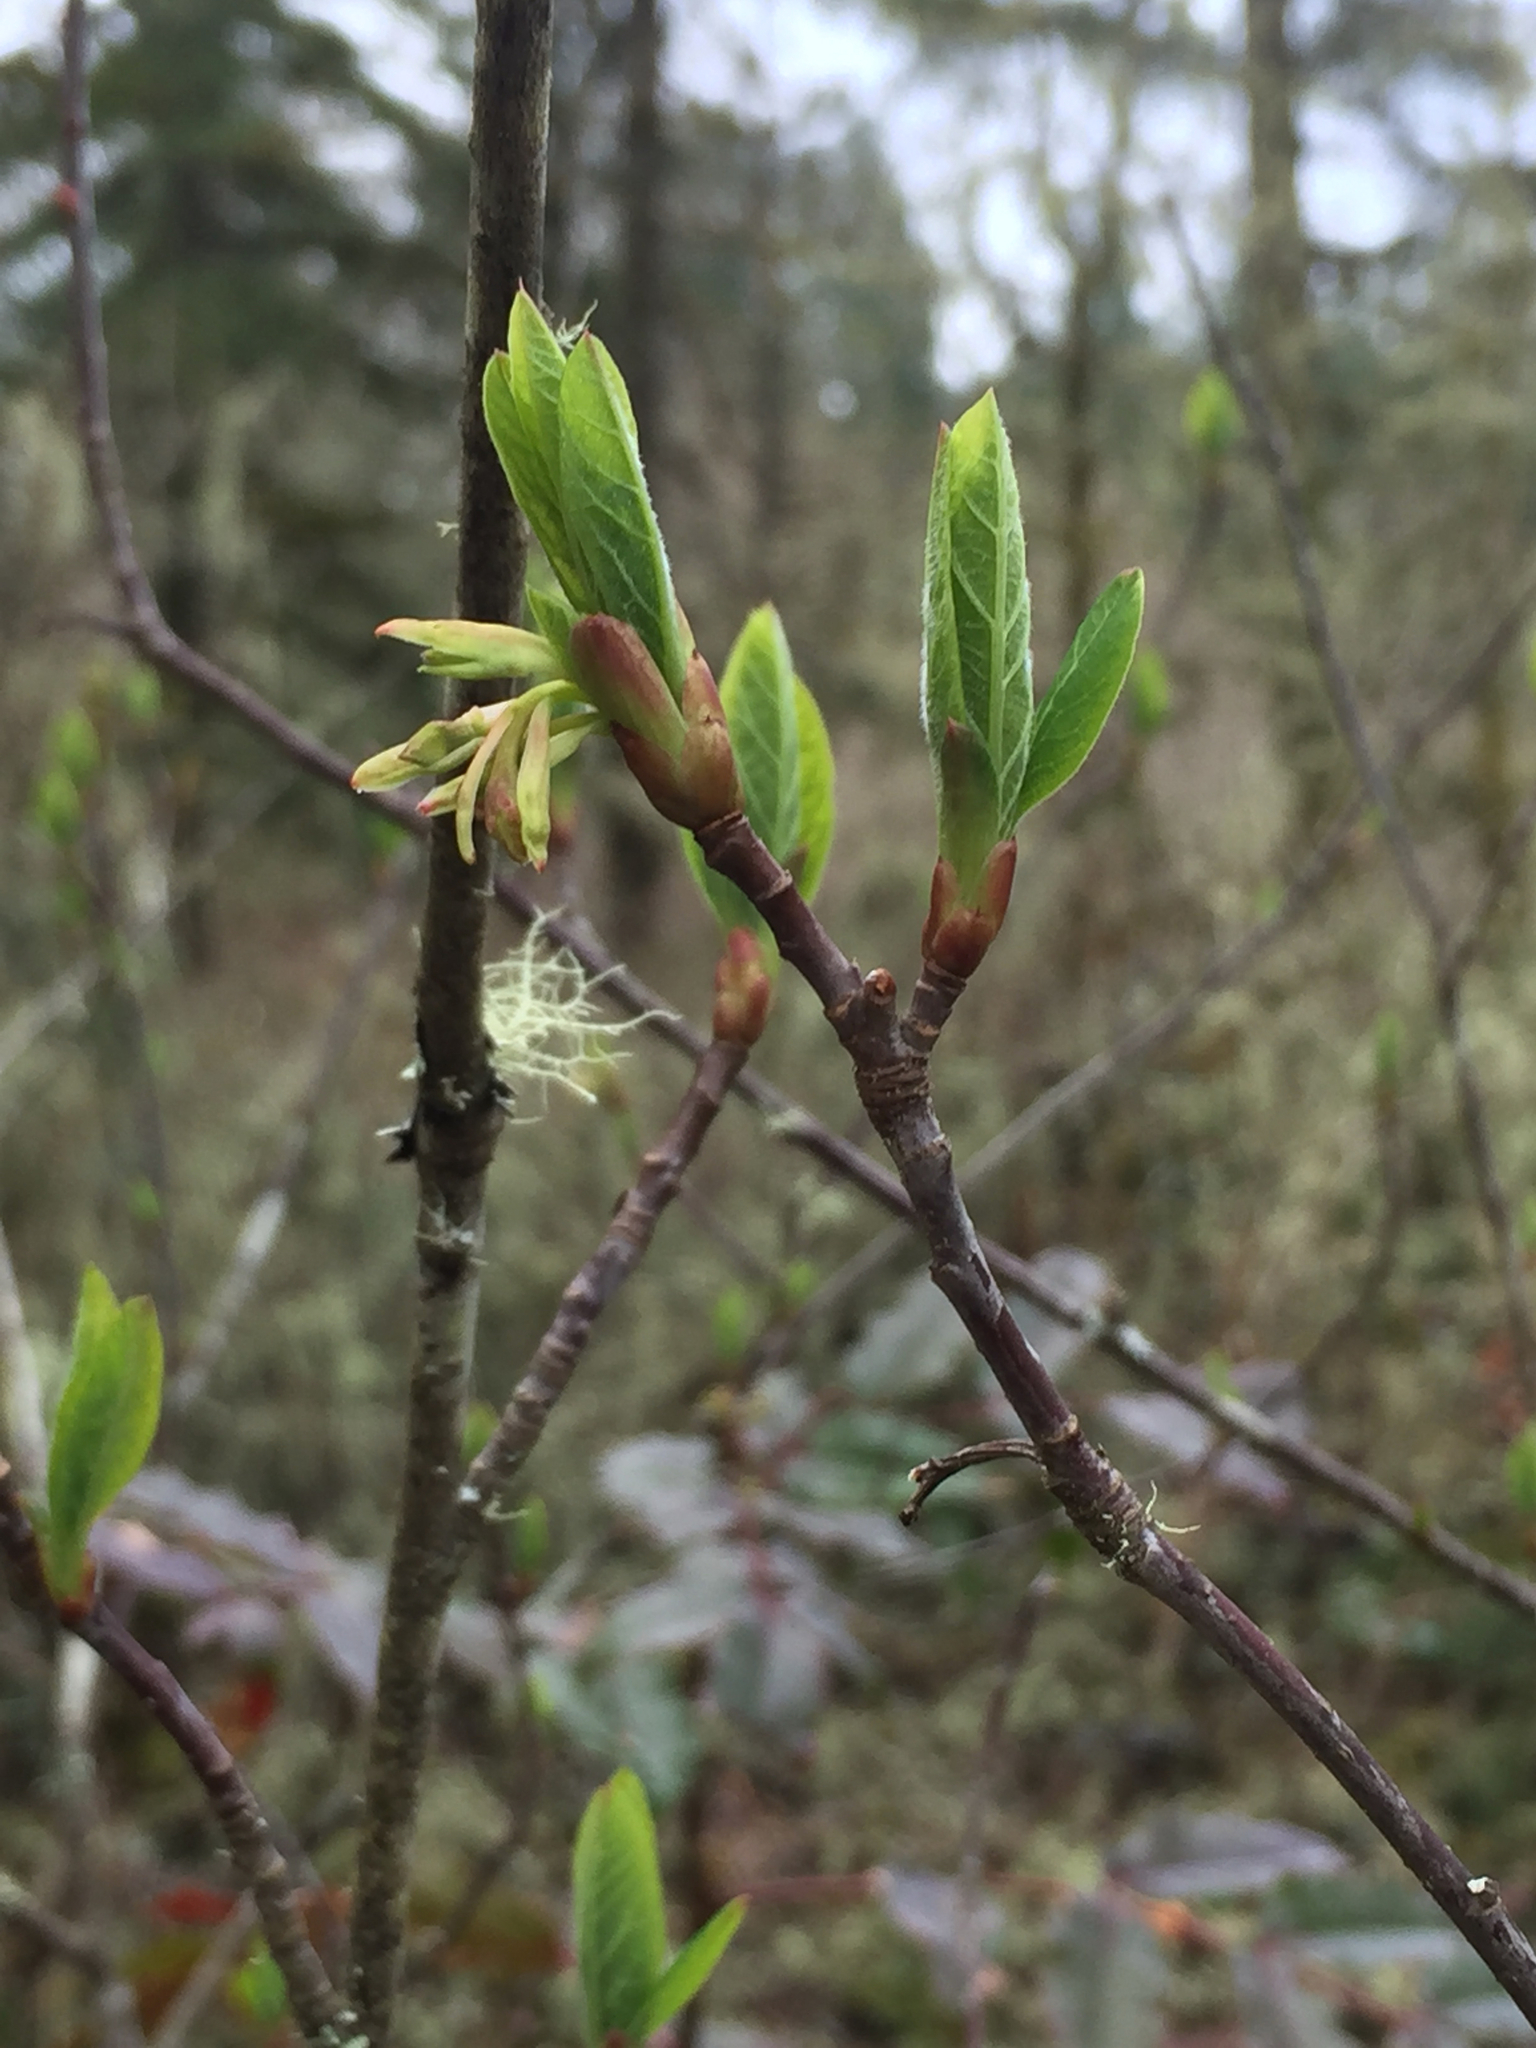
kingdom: Plantae
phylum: Tracheophyta
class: Magnoliopsida
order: Rosales
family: Rosaceae
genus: Oemleria
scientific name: Oemleria cerasiformis
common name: Osoberry
